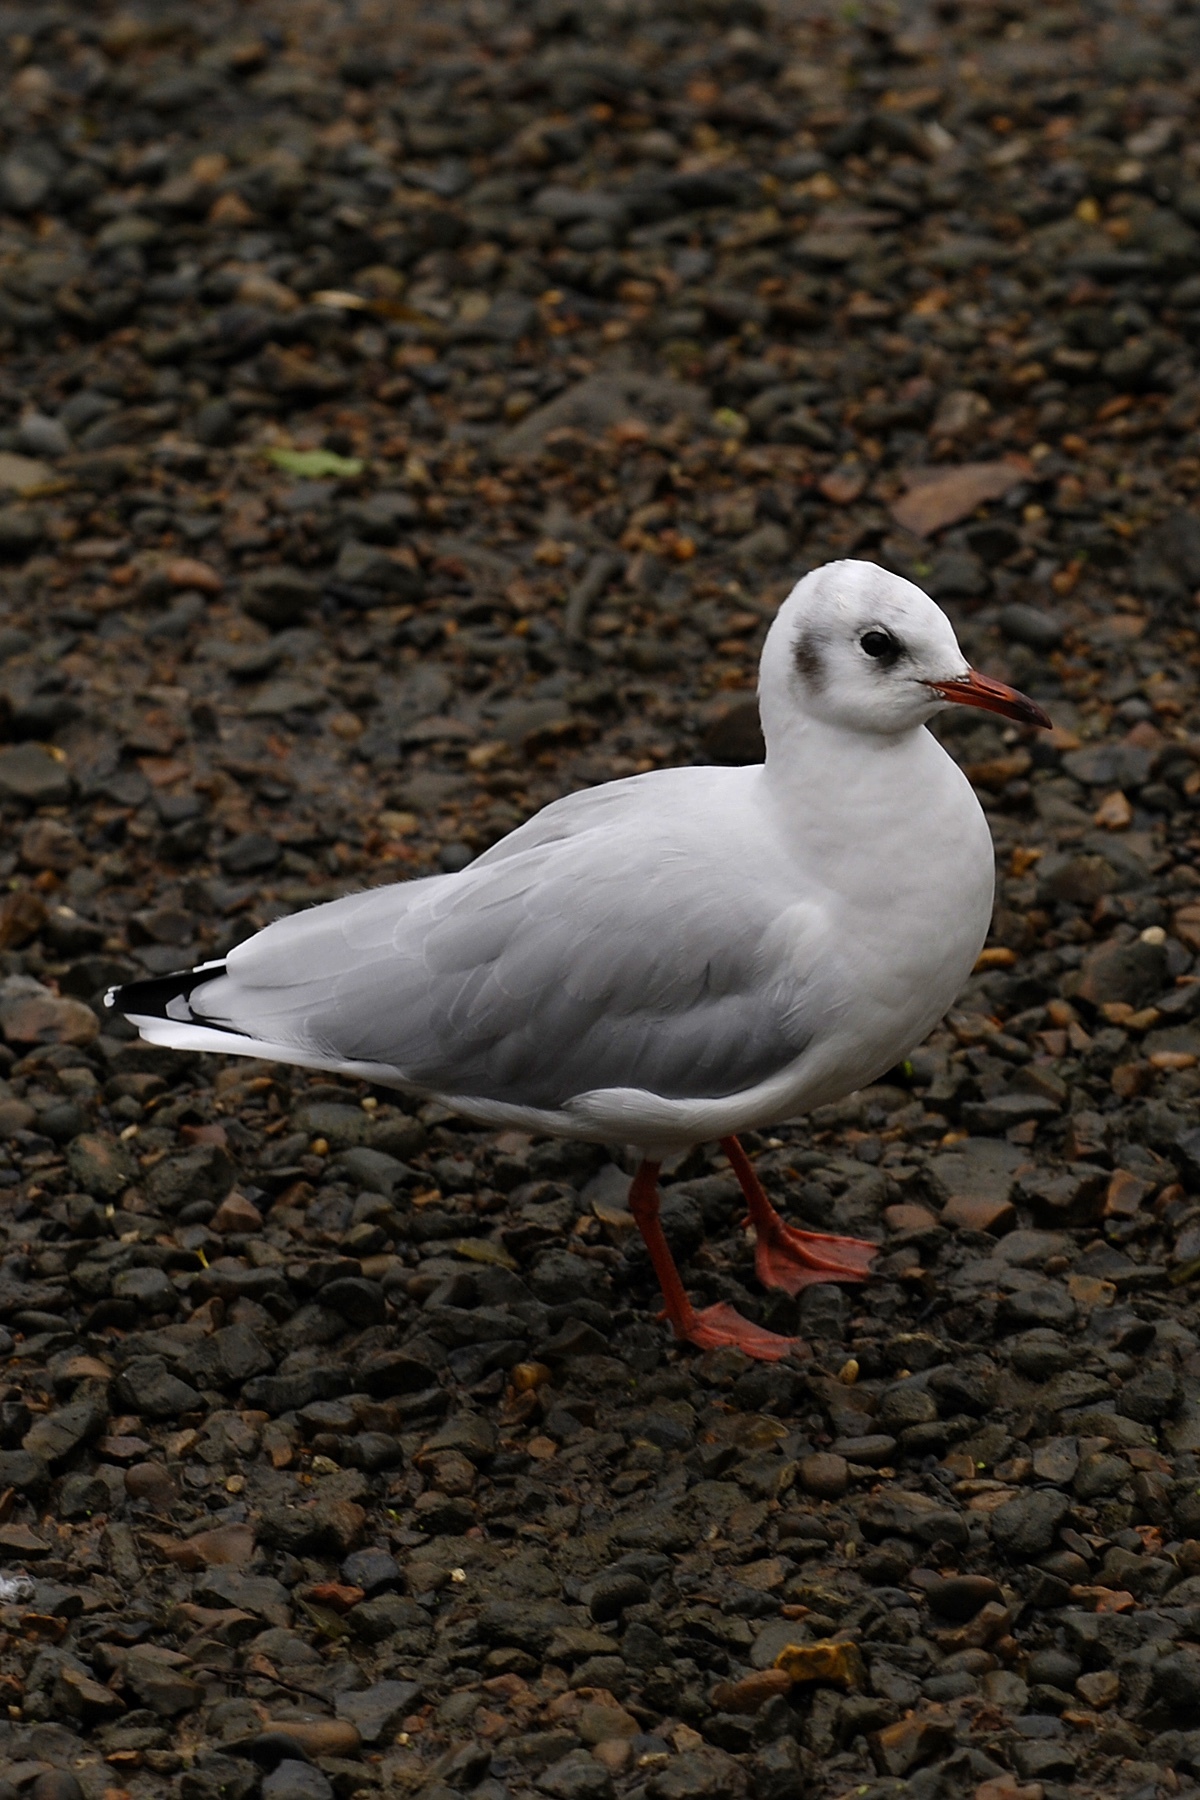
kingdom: Animalia
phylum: Chordata
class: Aves
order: Charadriiformes
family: Laridae
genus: Chroicocephalus
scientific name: Chroicocephalus ridibundus
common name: Black-headed gull
